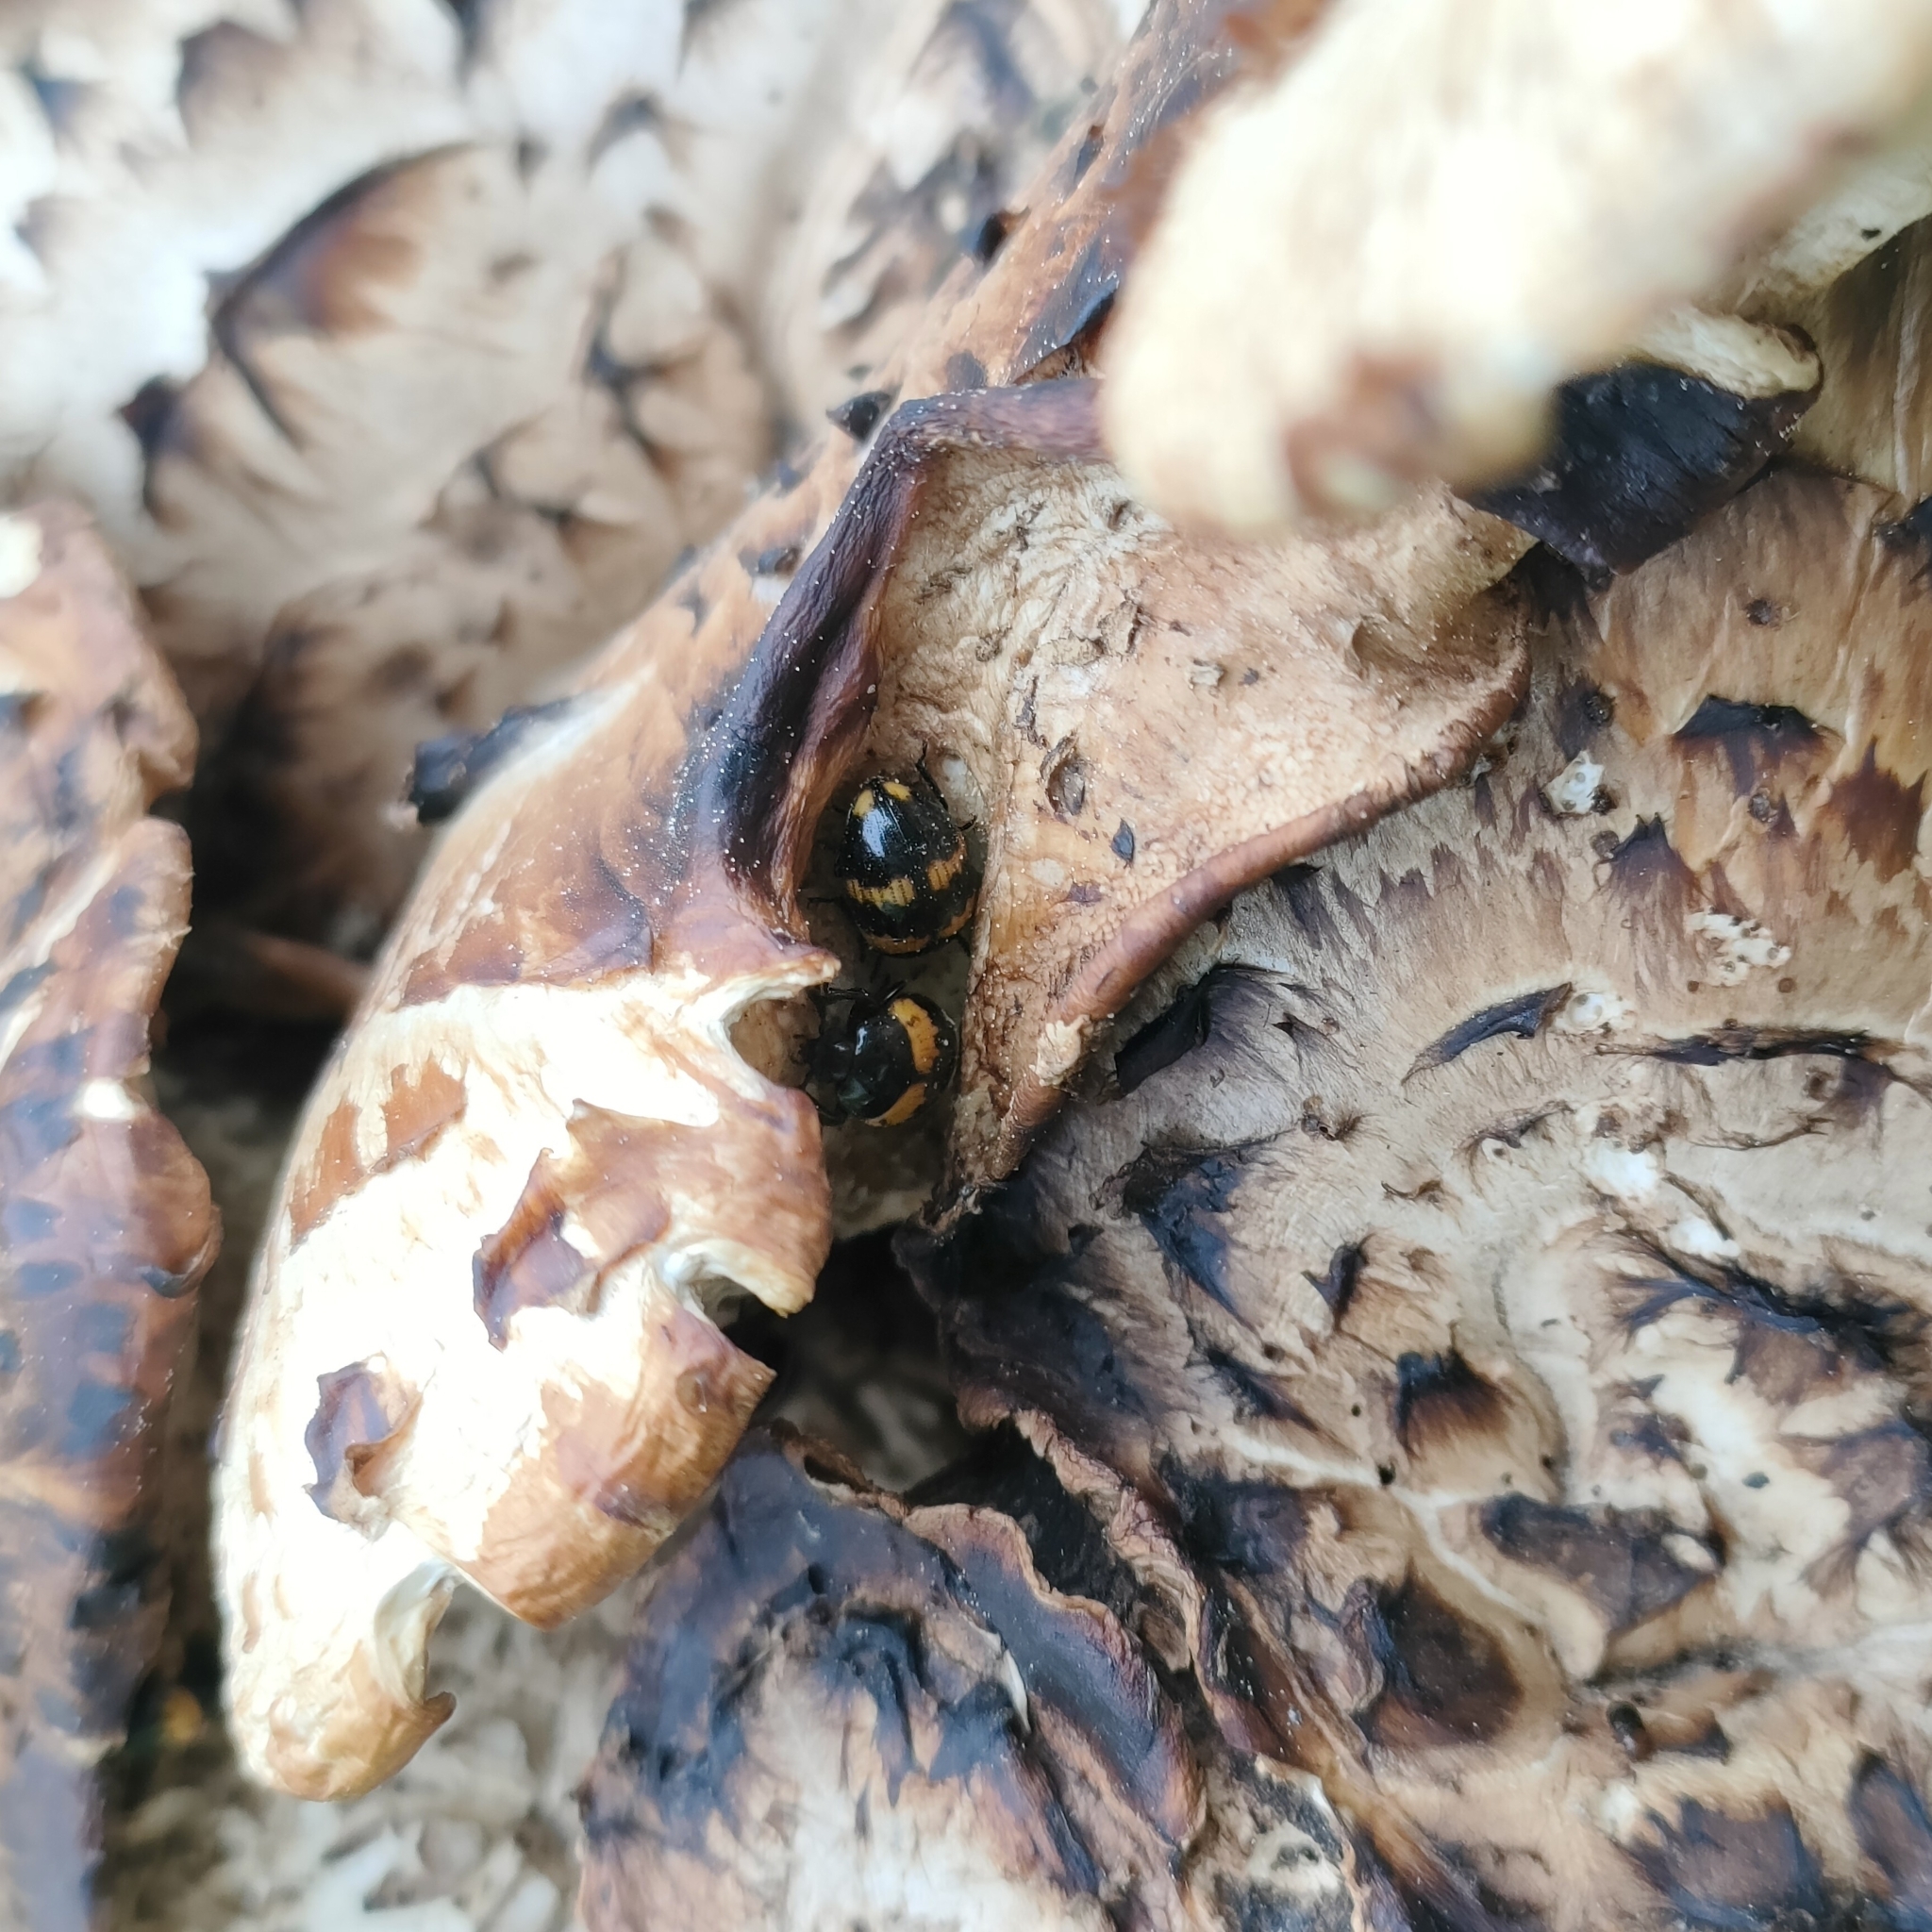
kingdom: Animalia
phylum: Arthropoda
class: Insecta
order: Coleoptera
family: Tenebrionidae
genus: Diaperis
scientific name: Diaperis boleti
